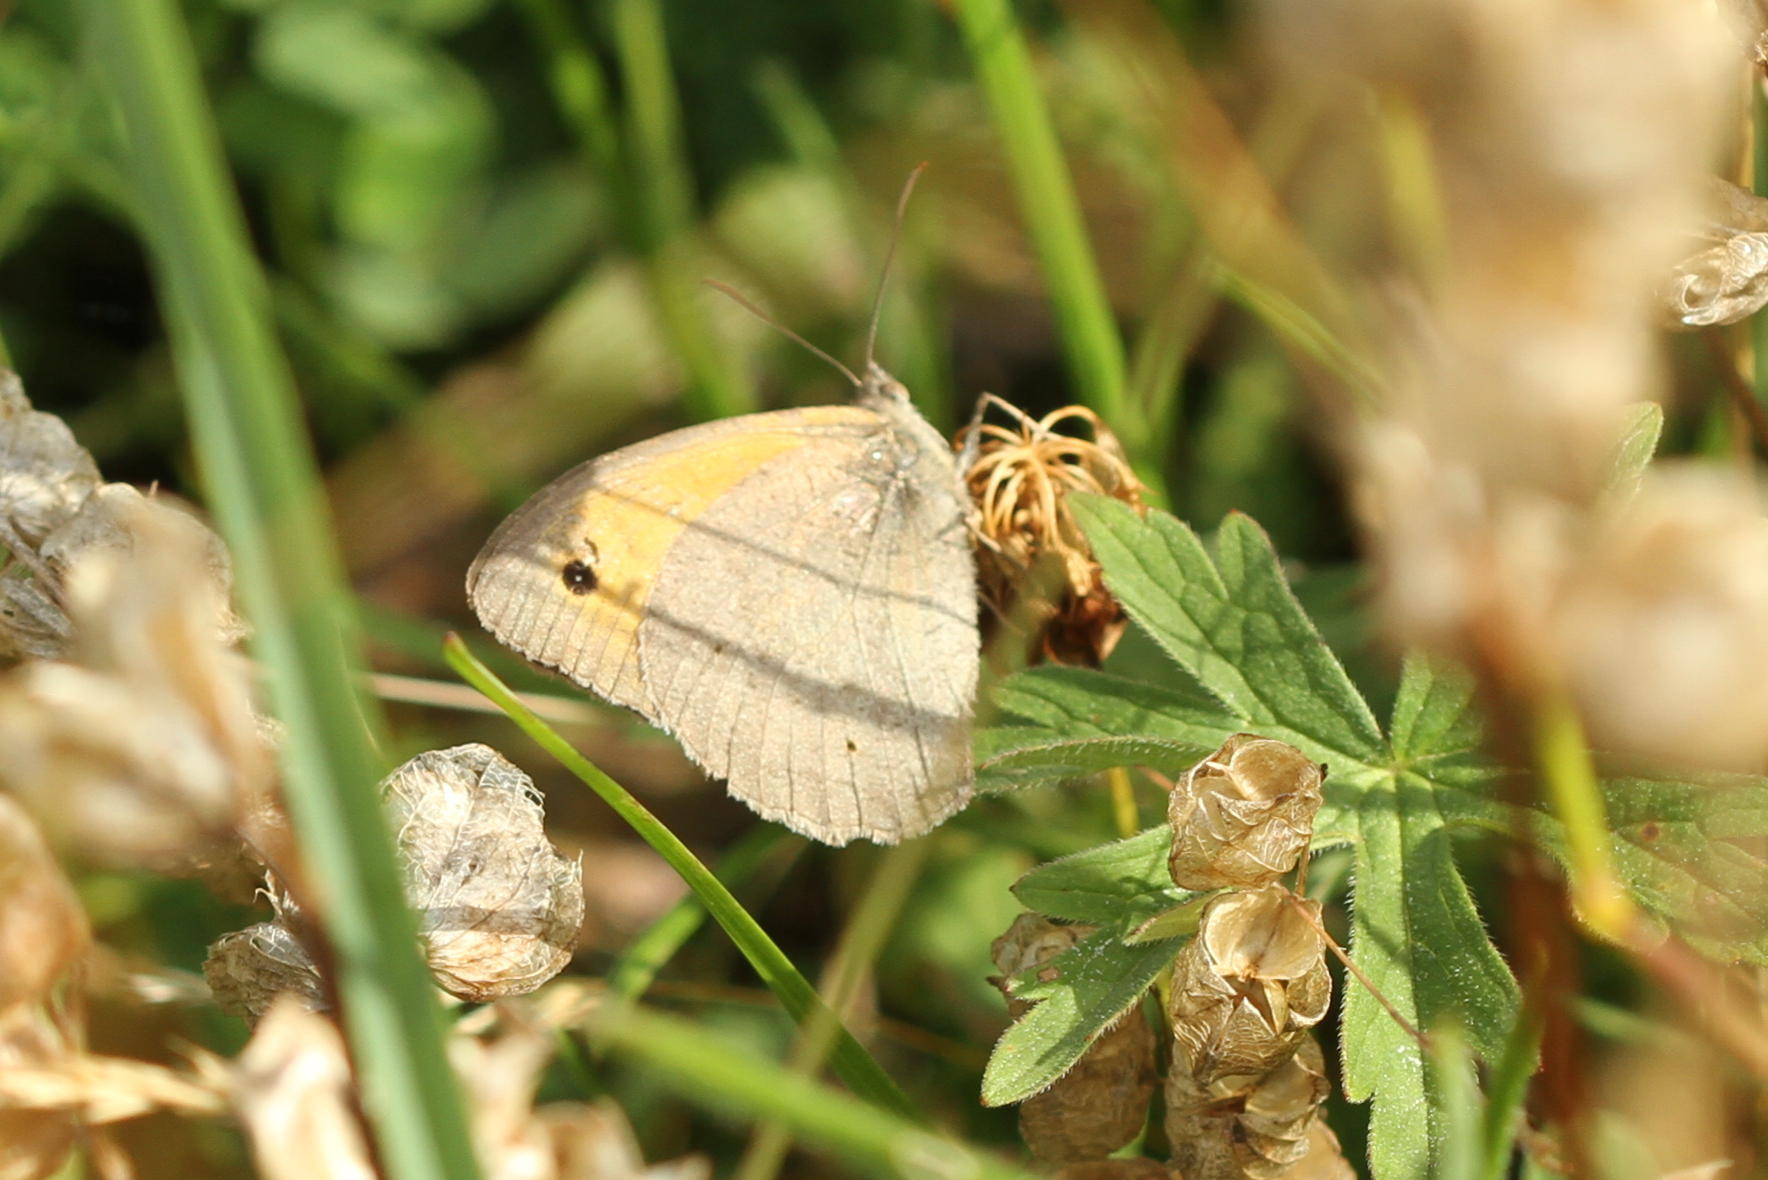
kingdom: Animalia
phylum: Arthropoda
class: Insecta
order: Lepidoptera
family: Nymphalidae
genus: Maniola
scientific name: Maniola jurtina
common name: Meadow brown
